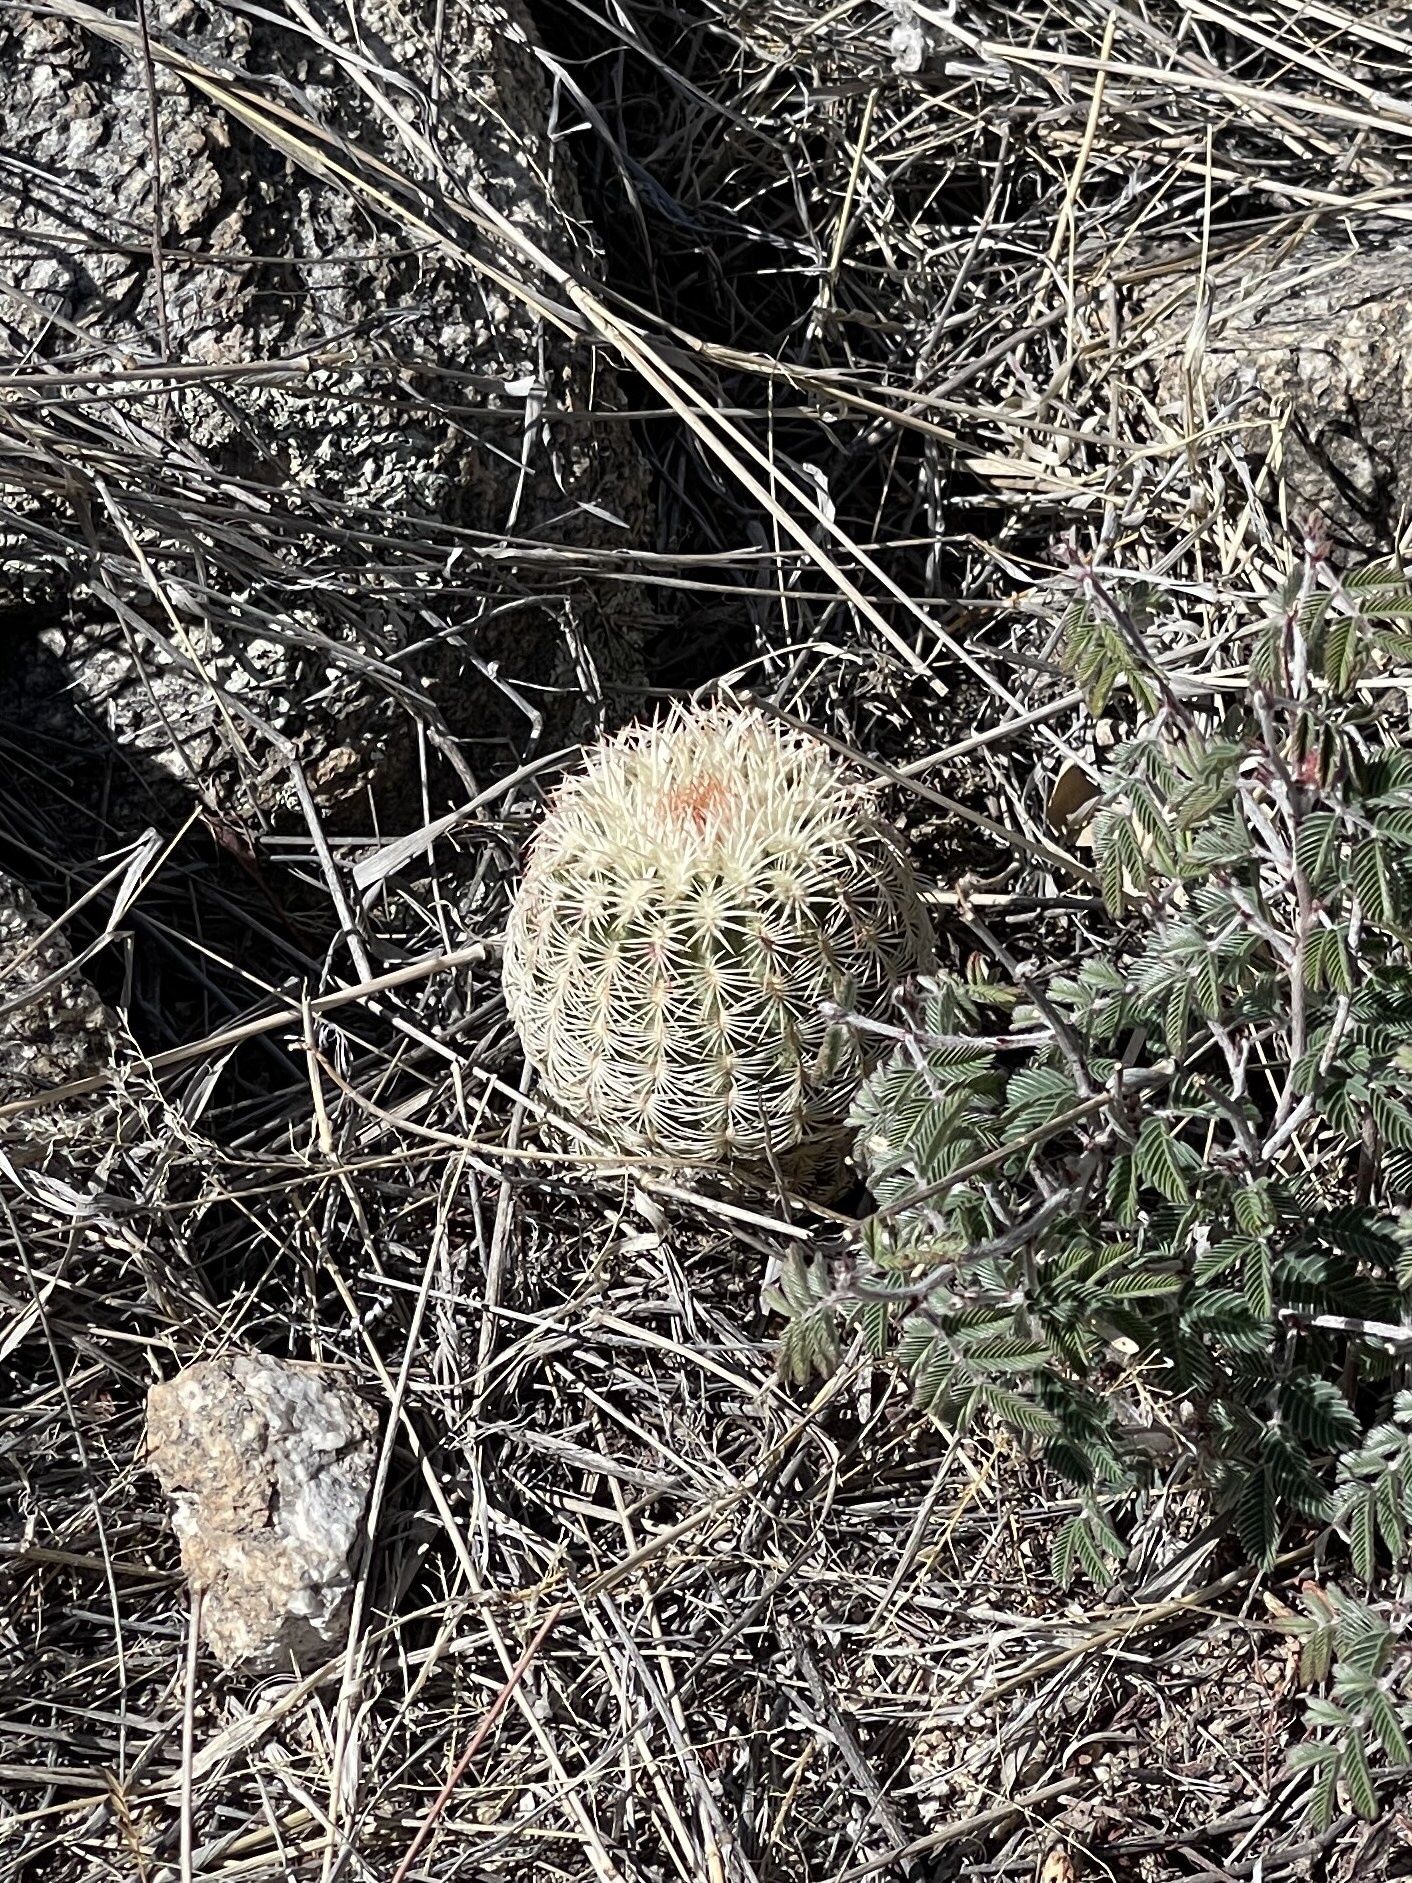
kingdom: Plantae
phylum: Tracheophyta
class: Magnoliopsida
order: Caryophyllales
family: Cactaceae
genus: Echinocereus
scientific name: Echinocereus rigidissimus
